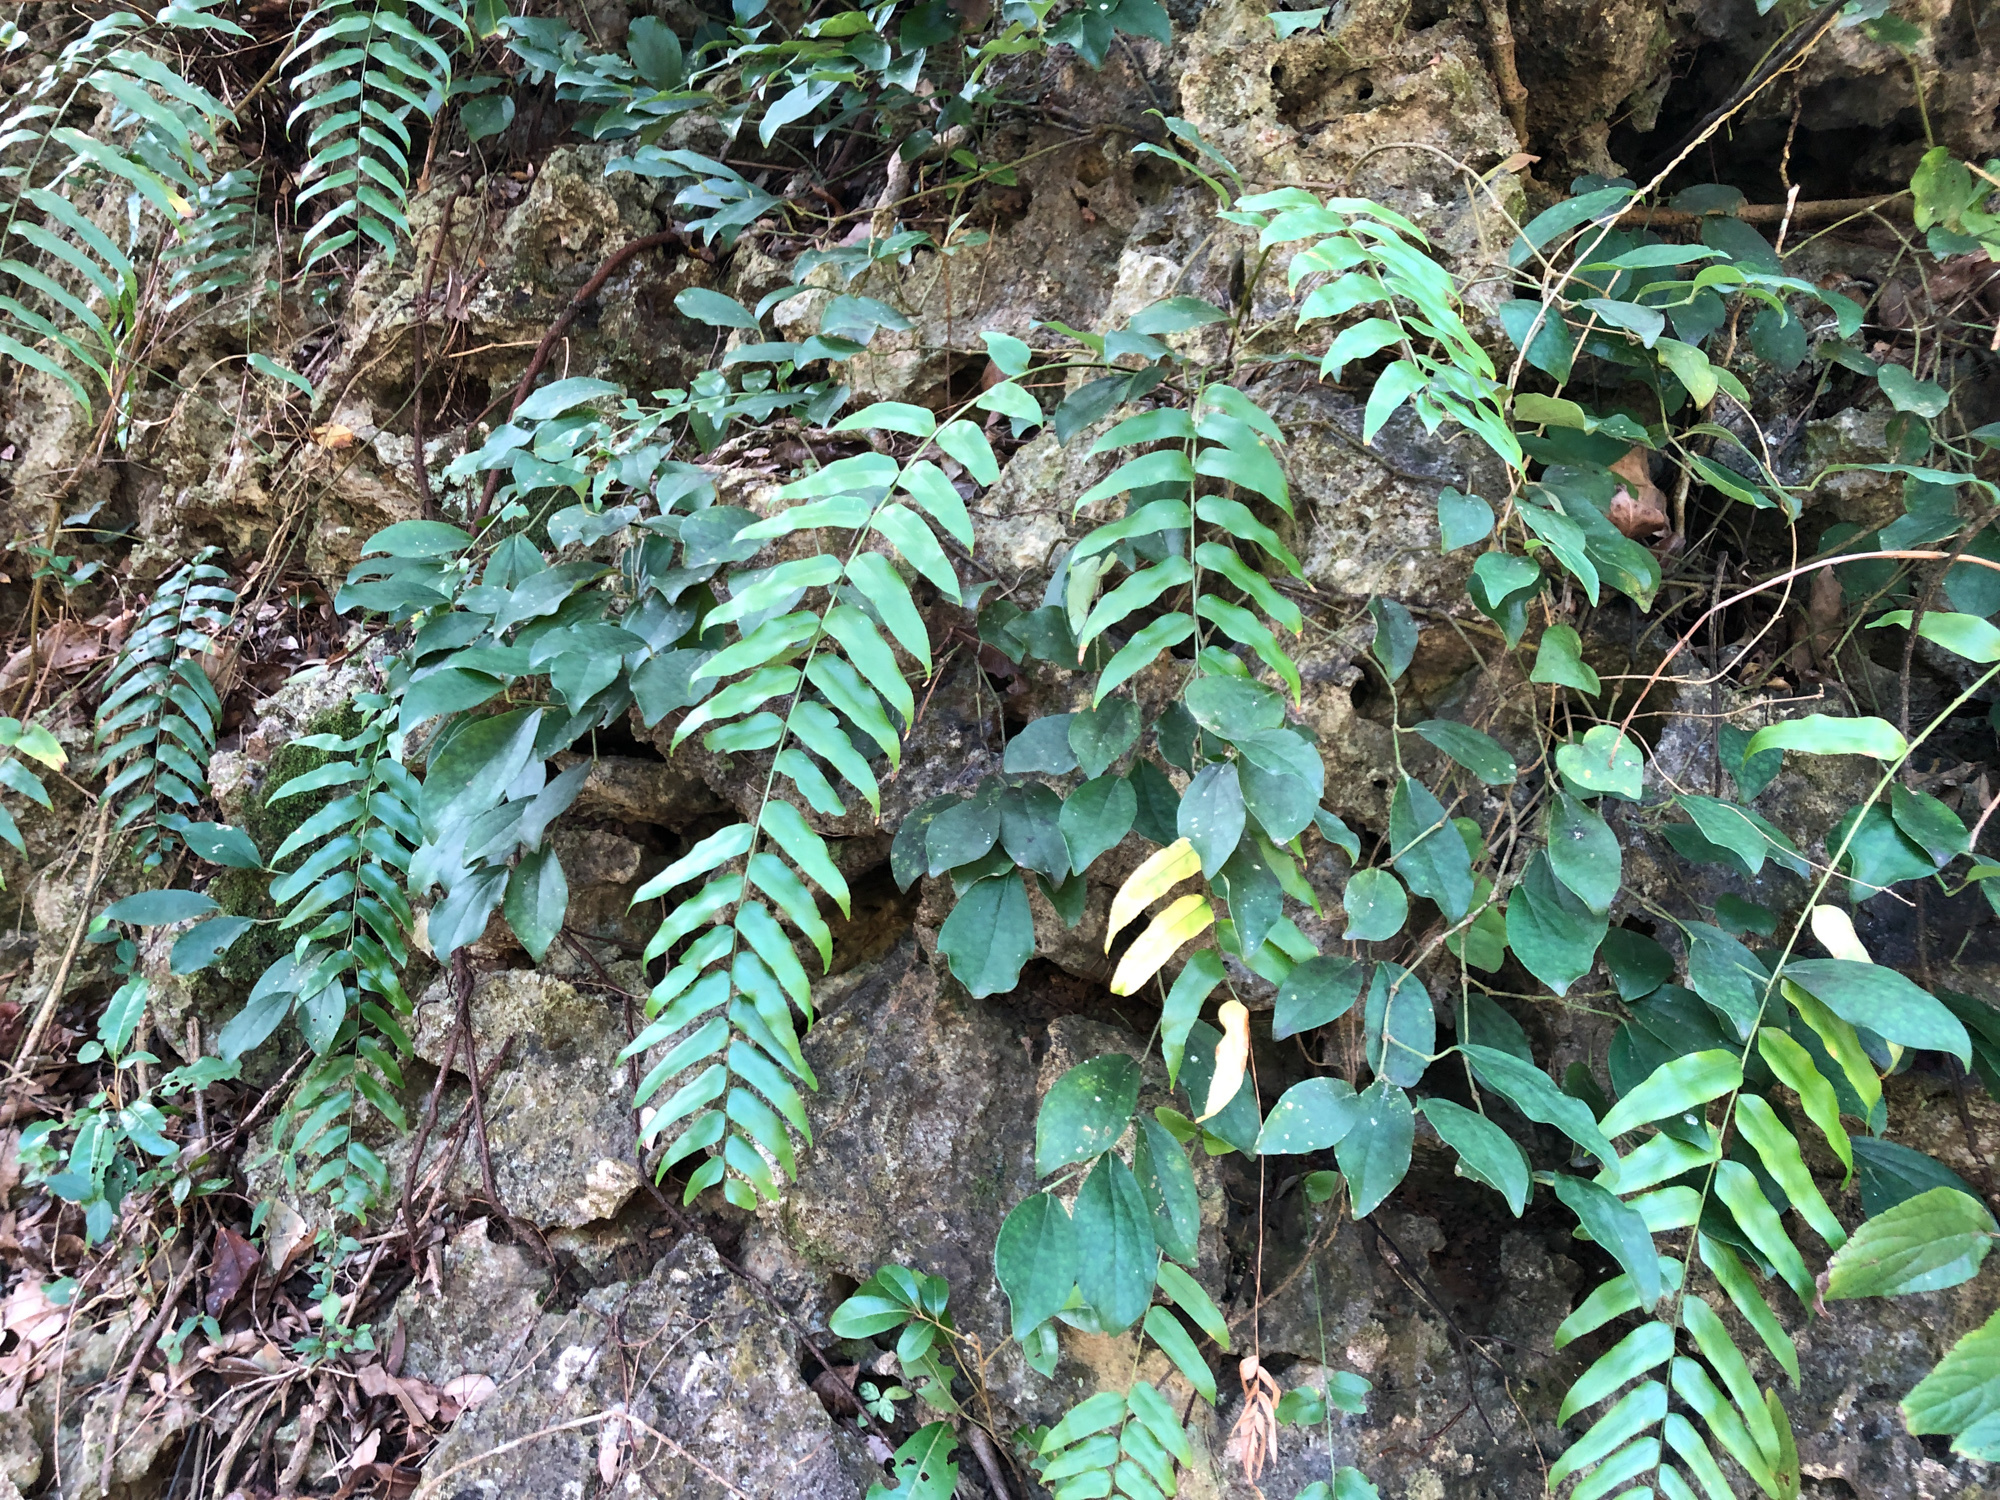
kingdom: Plantae
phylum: Tracheophyta
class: Polypodiopsida
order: Polypodiales
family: Nephrolepidaceae
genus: Nephrolepis
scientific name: Nephrolepis biserrata
